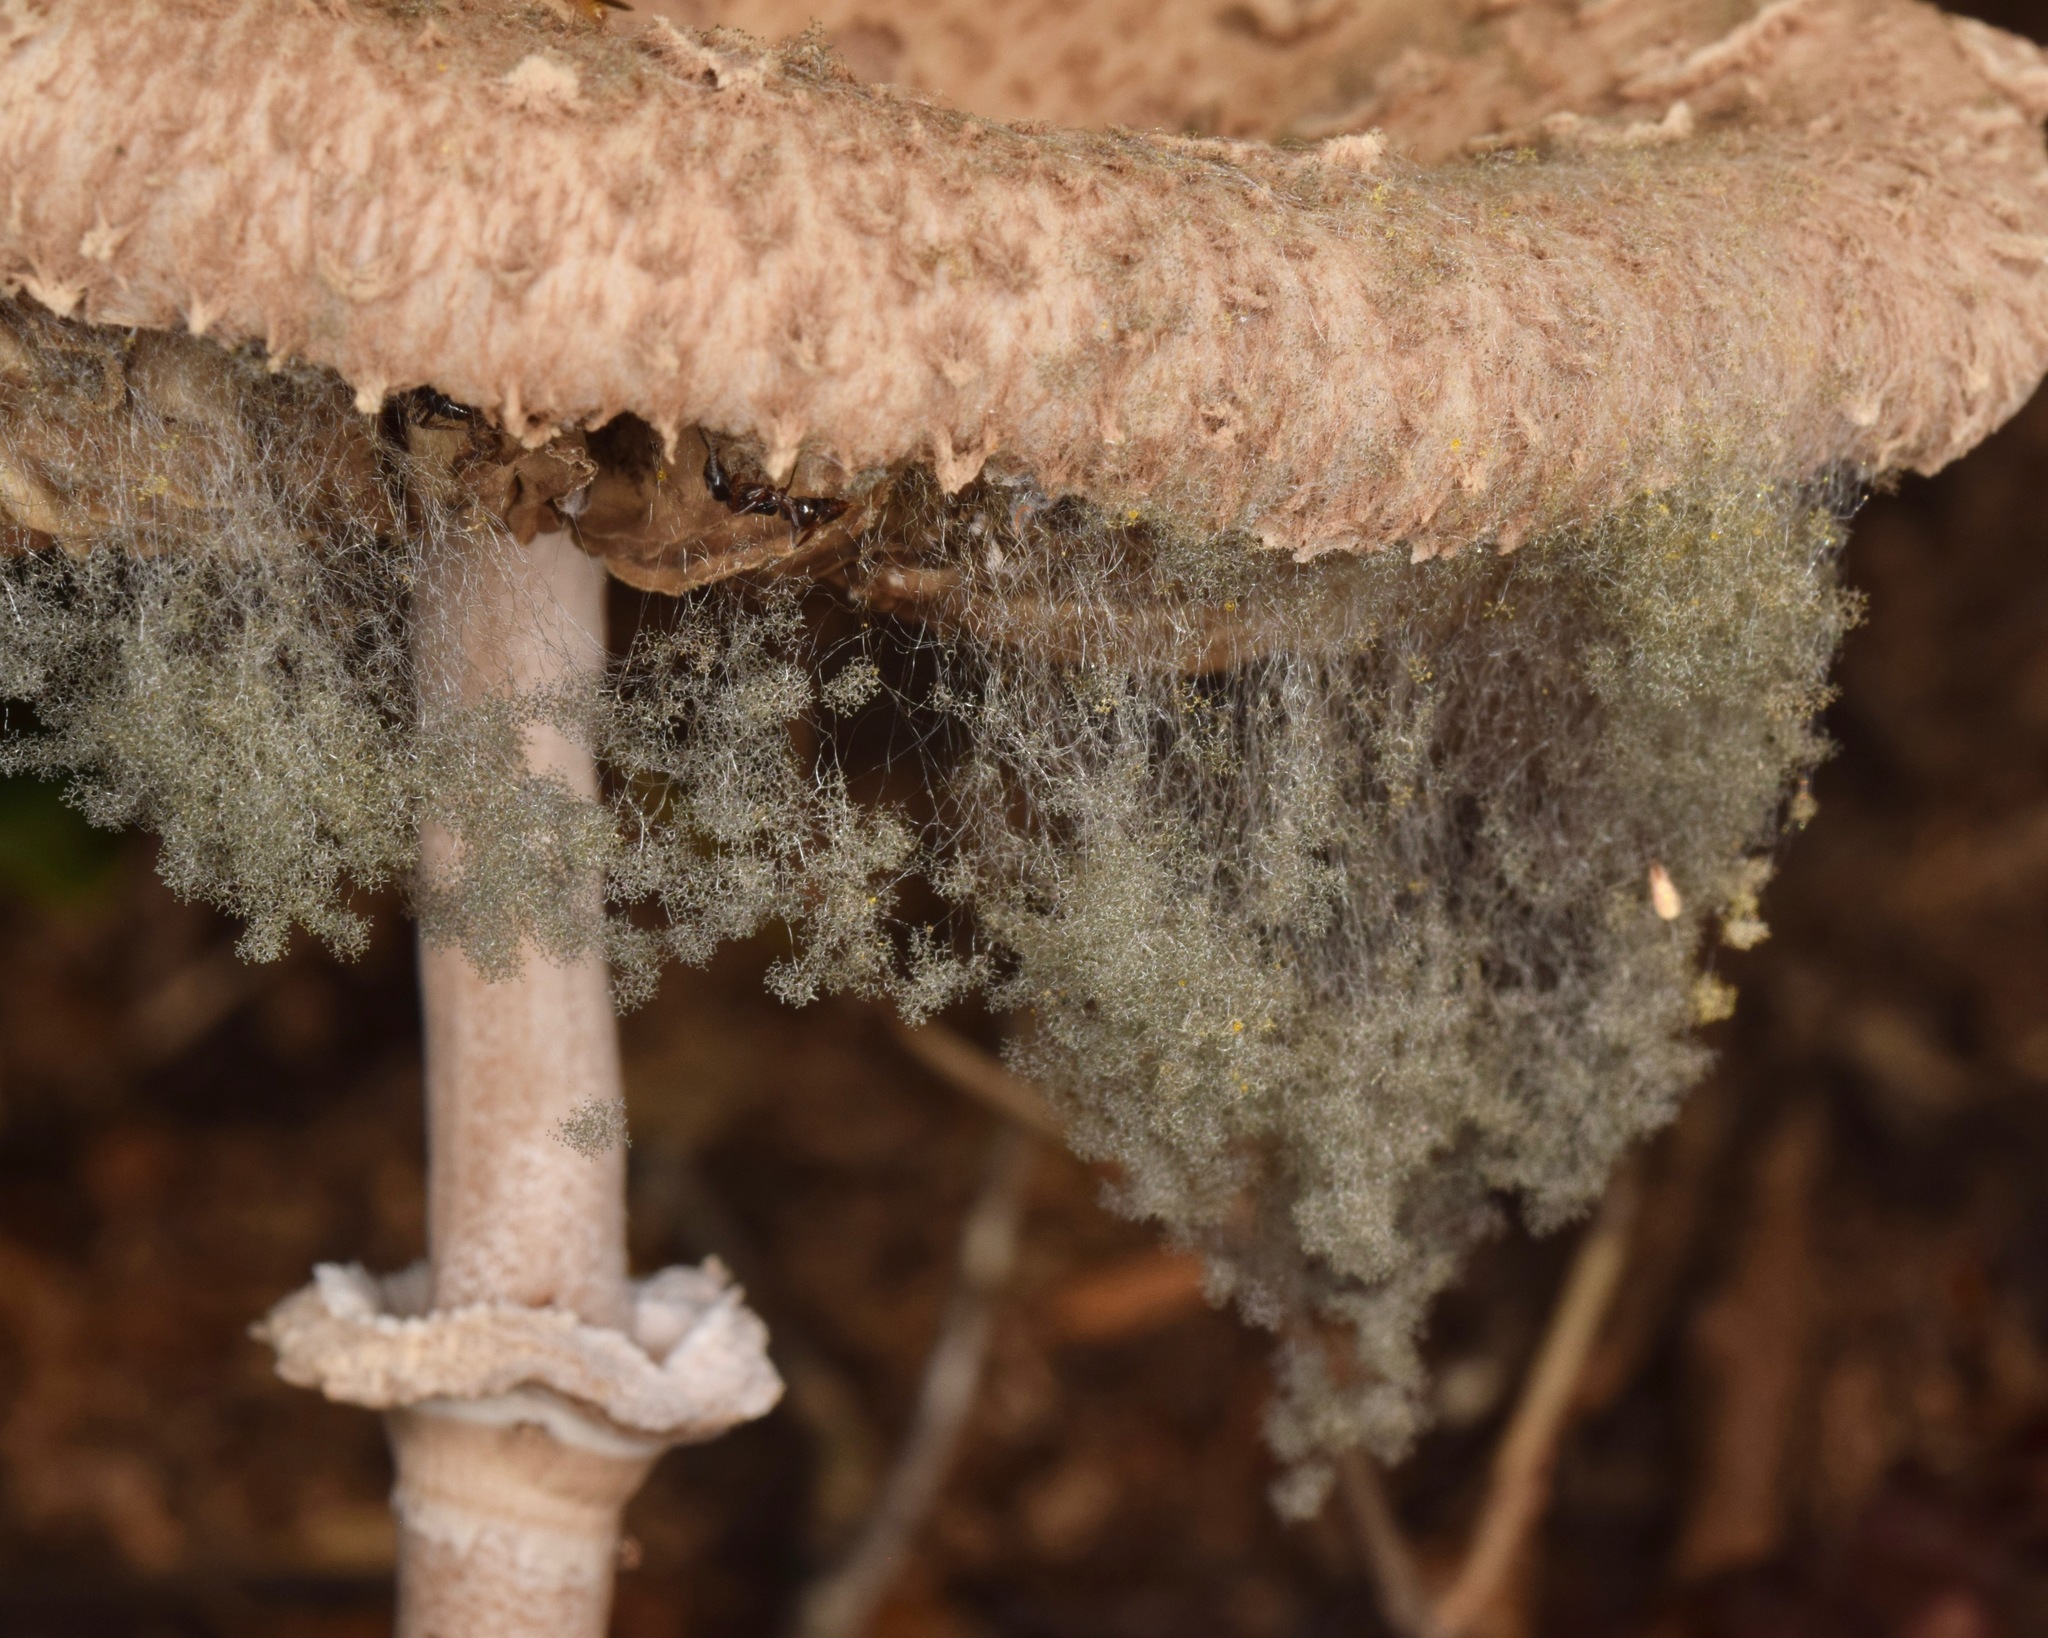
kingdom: Fungi
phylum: Mucoromycota
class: Mucoromycetes
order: Mucorales
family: Rhizopodaceae
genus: Syzygites
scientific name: Syzygites megalocarpus
